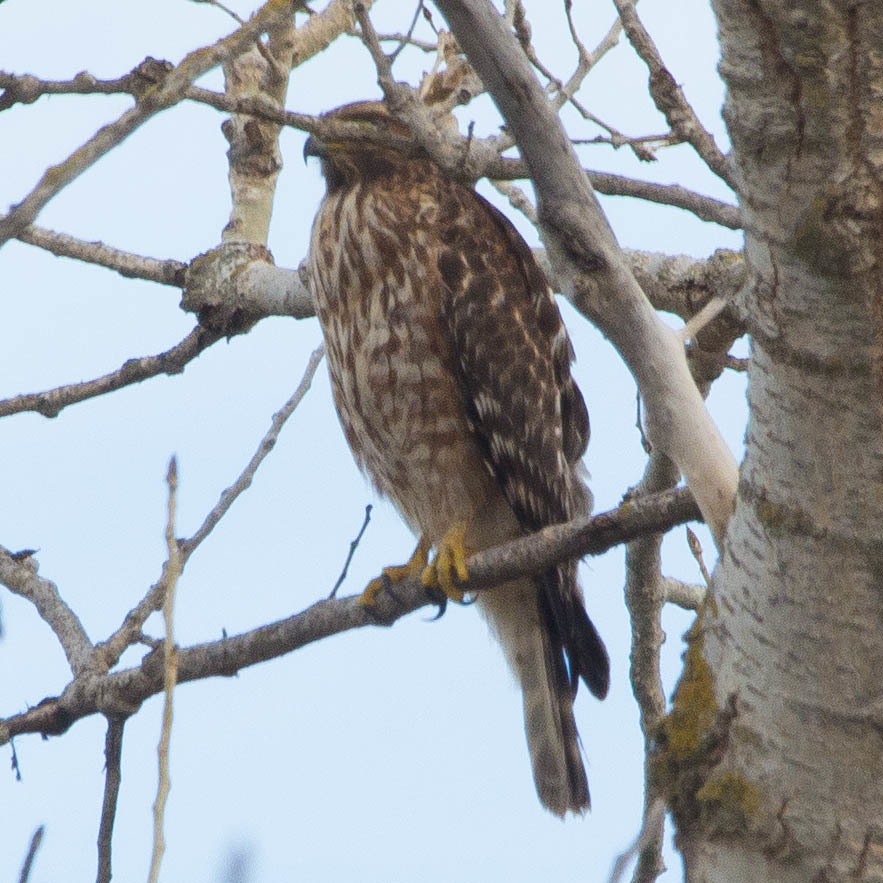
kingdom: Animalia
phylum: Chordata
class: Aves
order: Accipitriformes
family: Accipitridae
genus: Buteo
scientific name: Buteo lineatus
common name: Red-shouldered hawk
